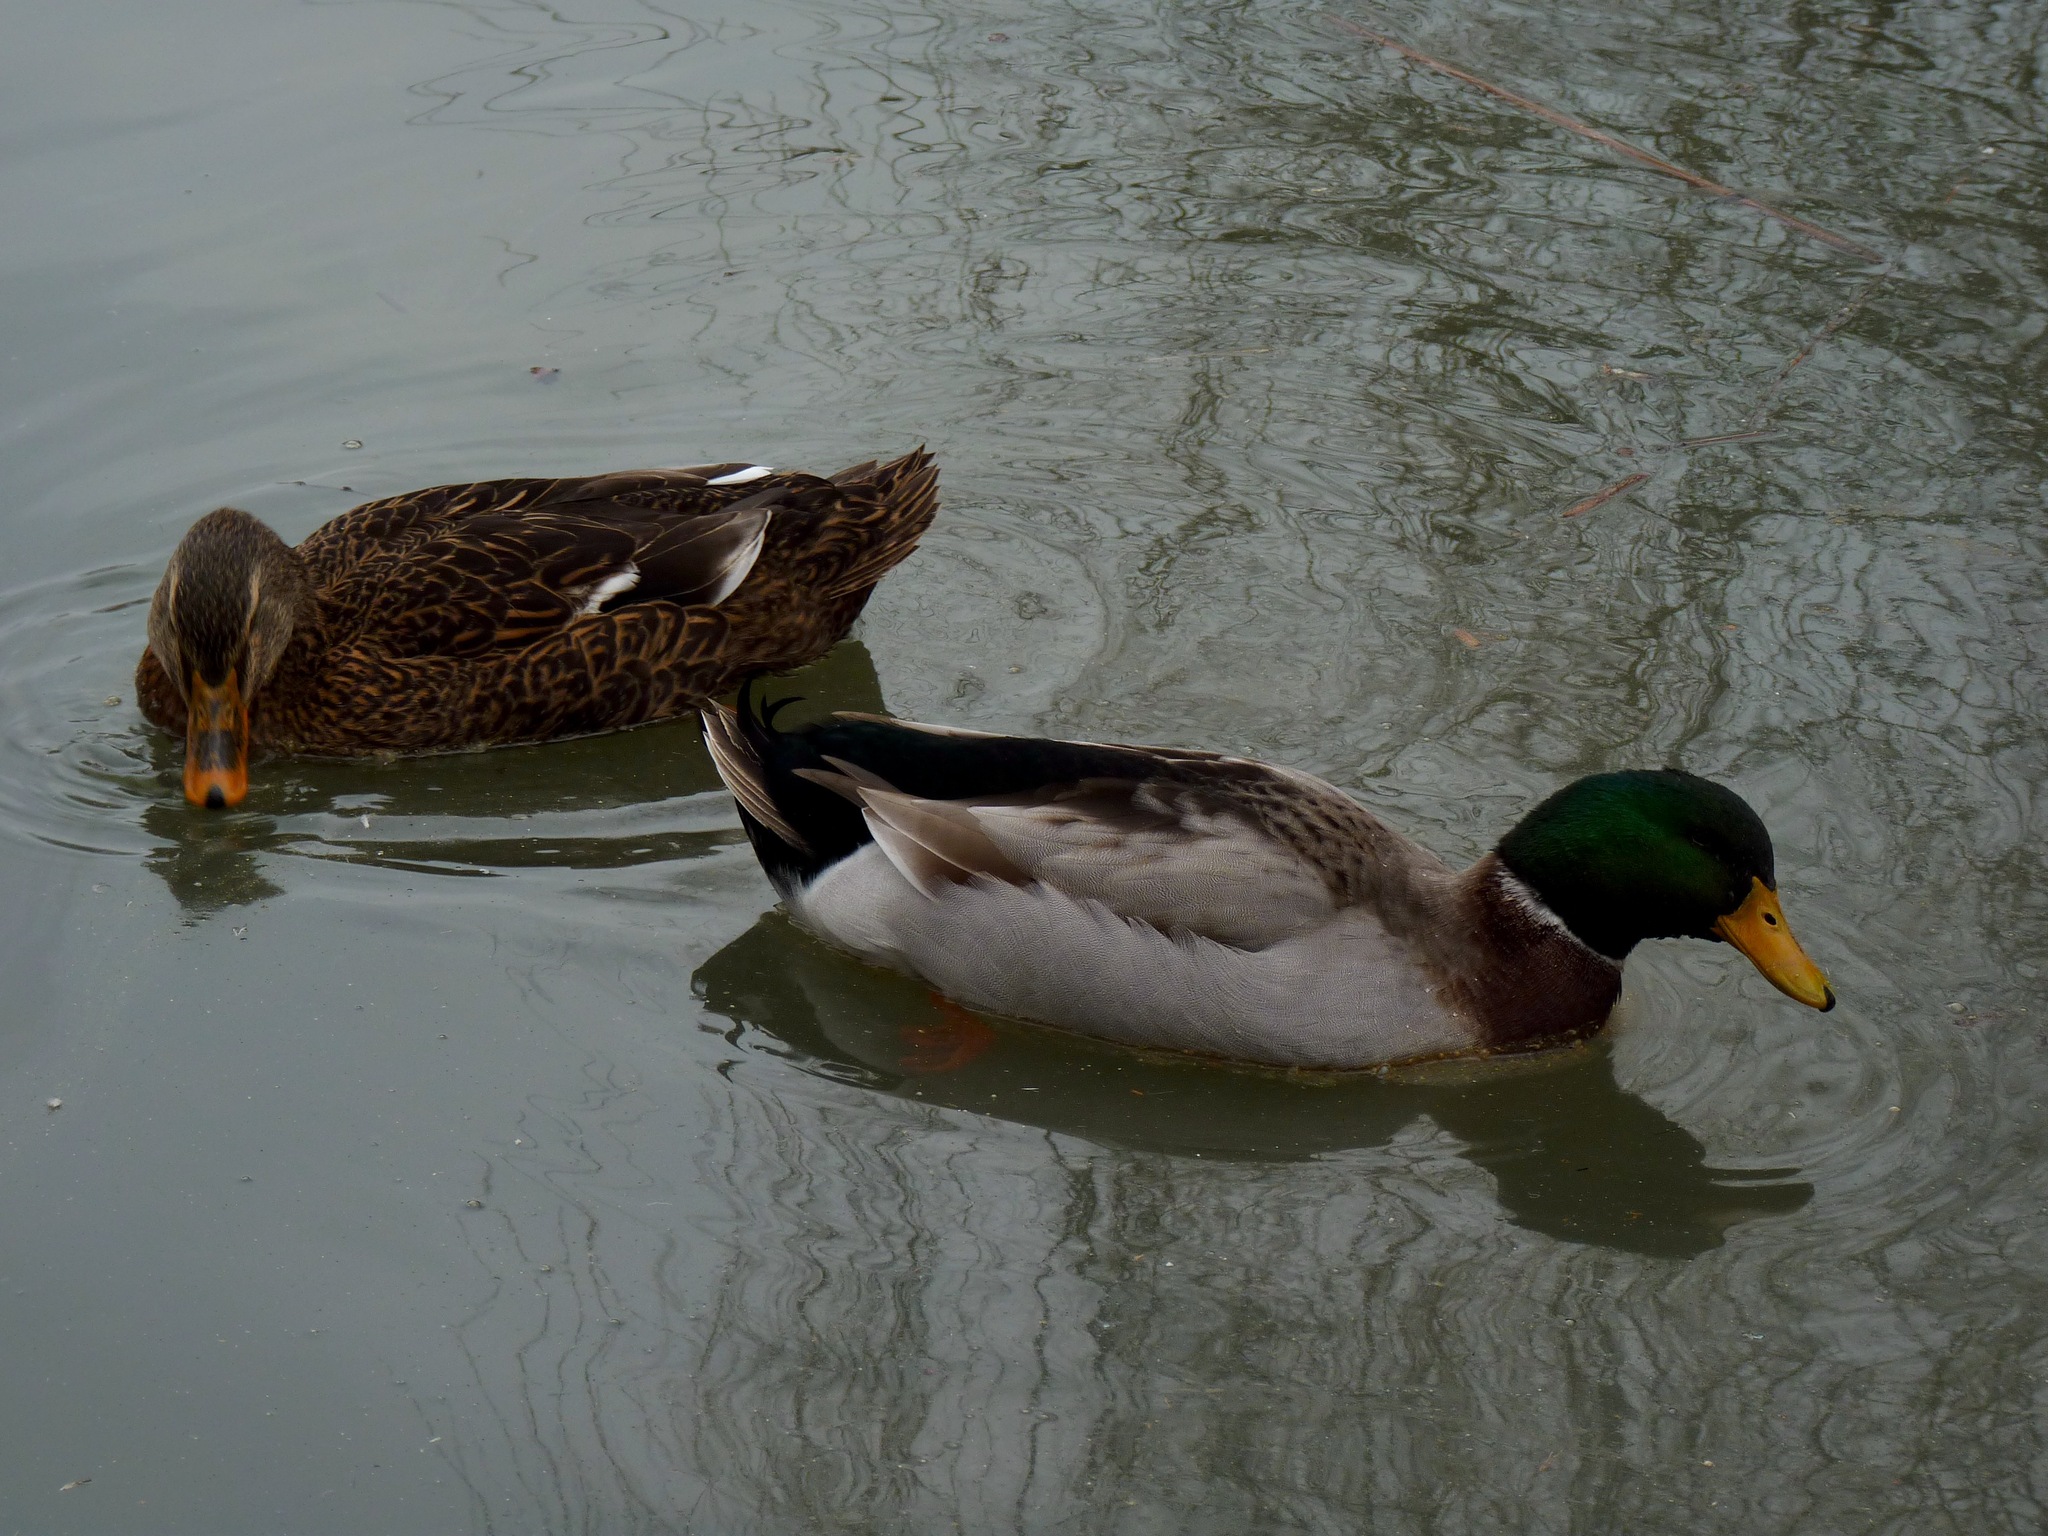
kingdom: Animalia
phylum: Chordata
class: Aves
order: Anseriformes
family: Anatidae
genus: Anas
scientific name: Anas platyrhynchos
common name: Mallard
